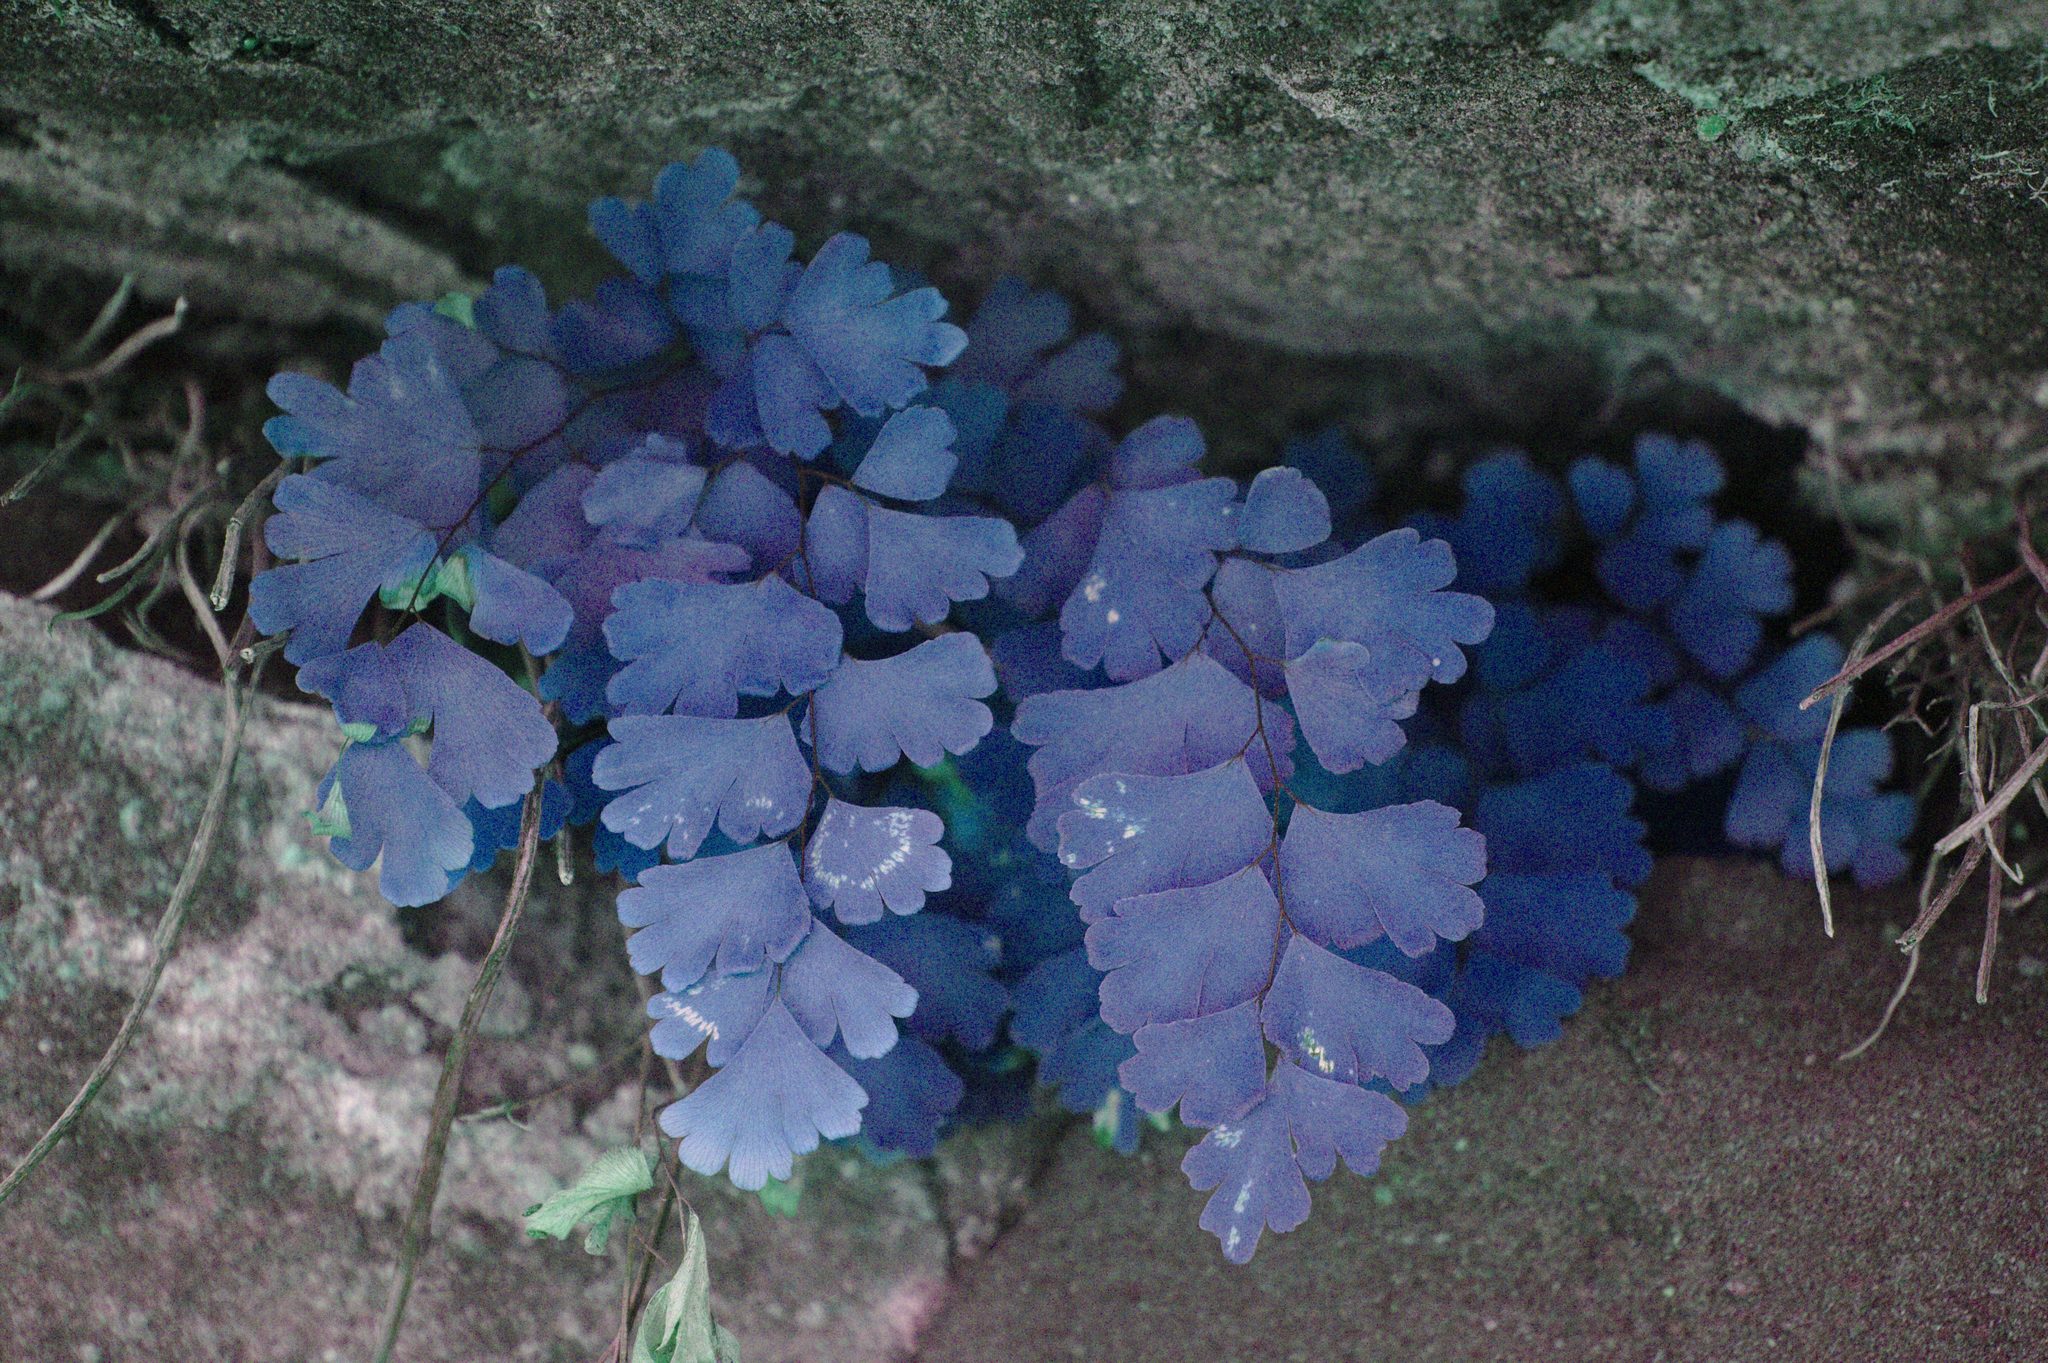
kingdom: Plantae
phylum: Tracheophyta
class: Polypodiopsida
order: Polypodiales
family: Pteridaceae
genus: Adiantum
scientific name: Adiantum capillus-veneris
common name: Maidenhair fern
